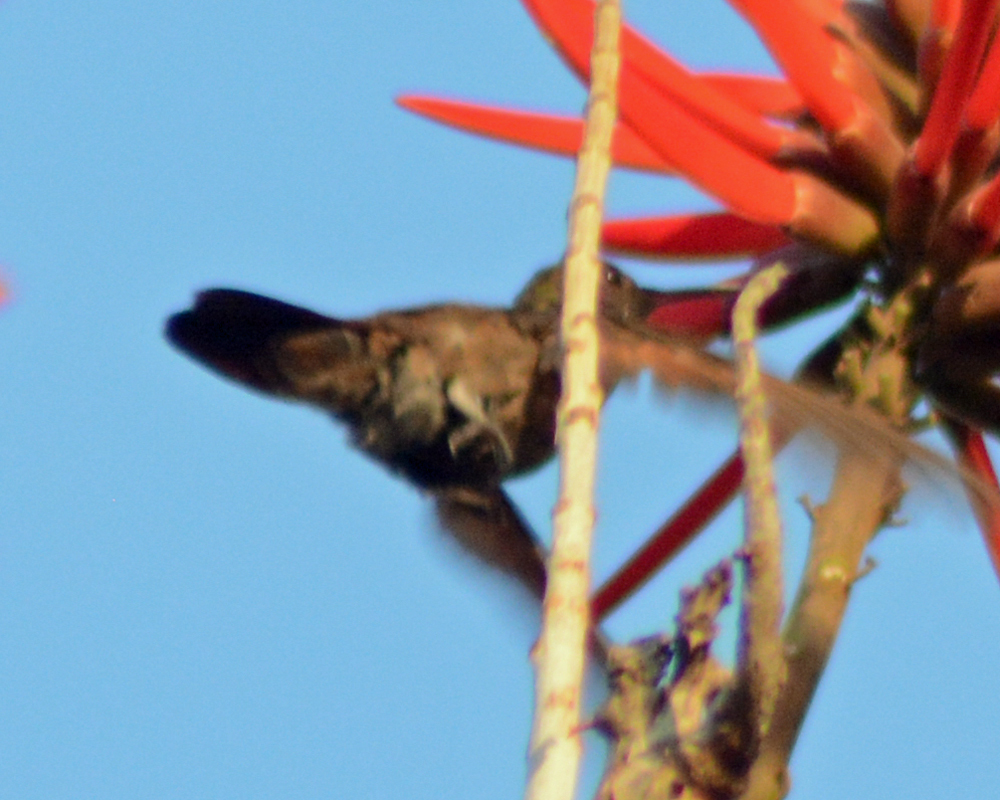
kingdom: Animalia
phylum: Chordata
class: Aves
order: Apodiformes
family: Trochilidae
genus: Saucerottia
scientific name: Saucerottia beryllina
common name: Berylline hummingbird
